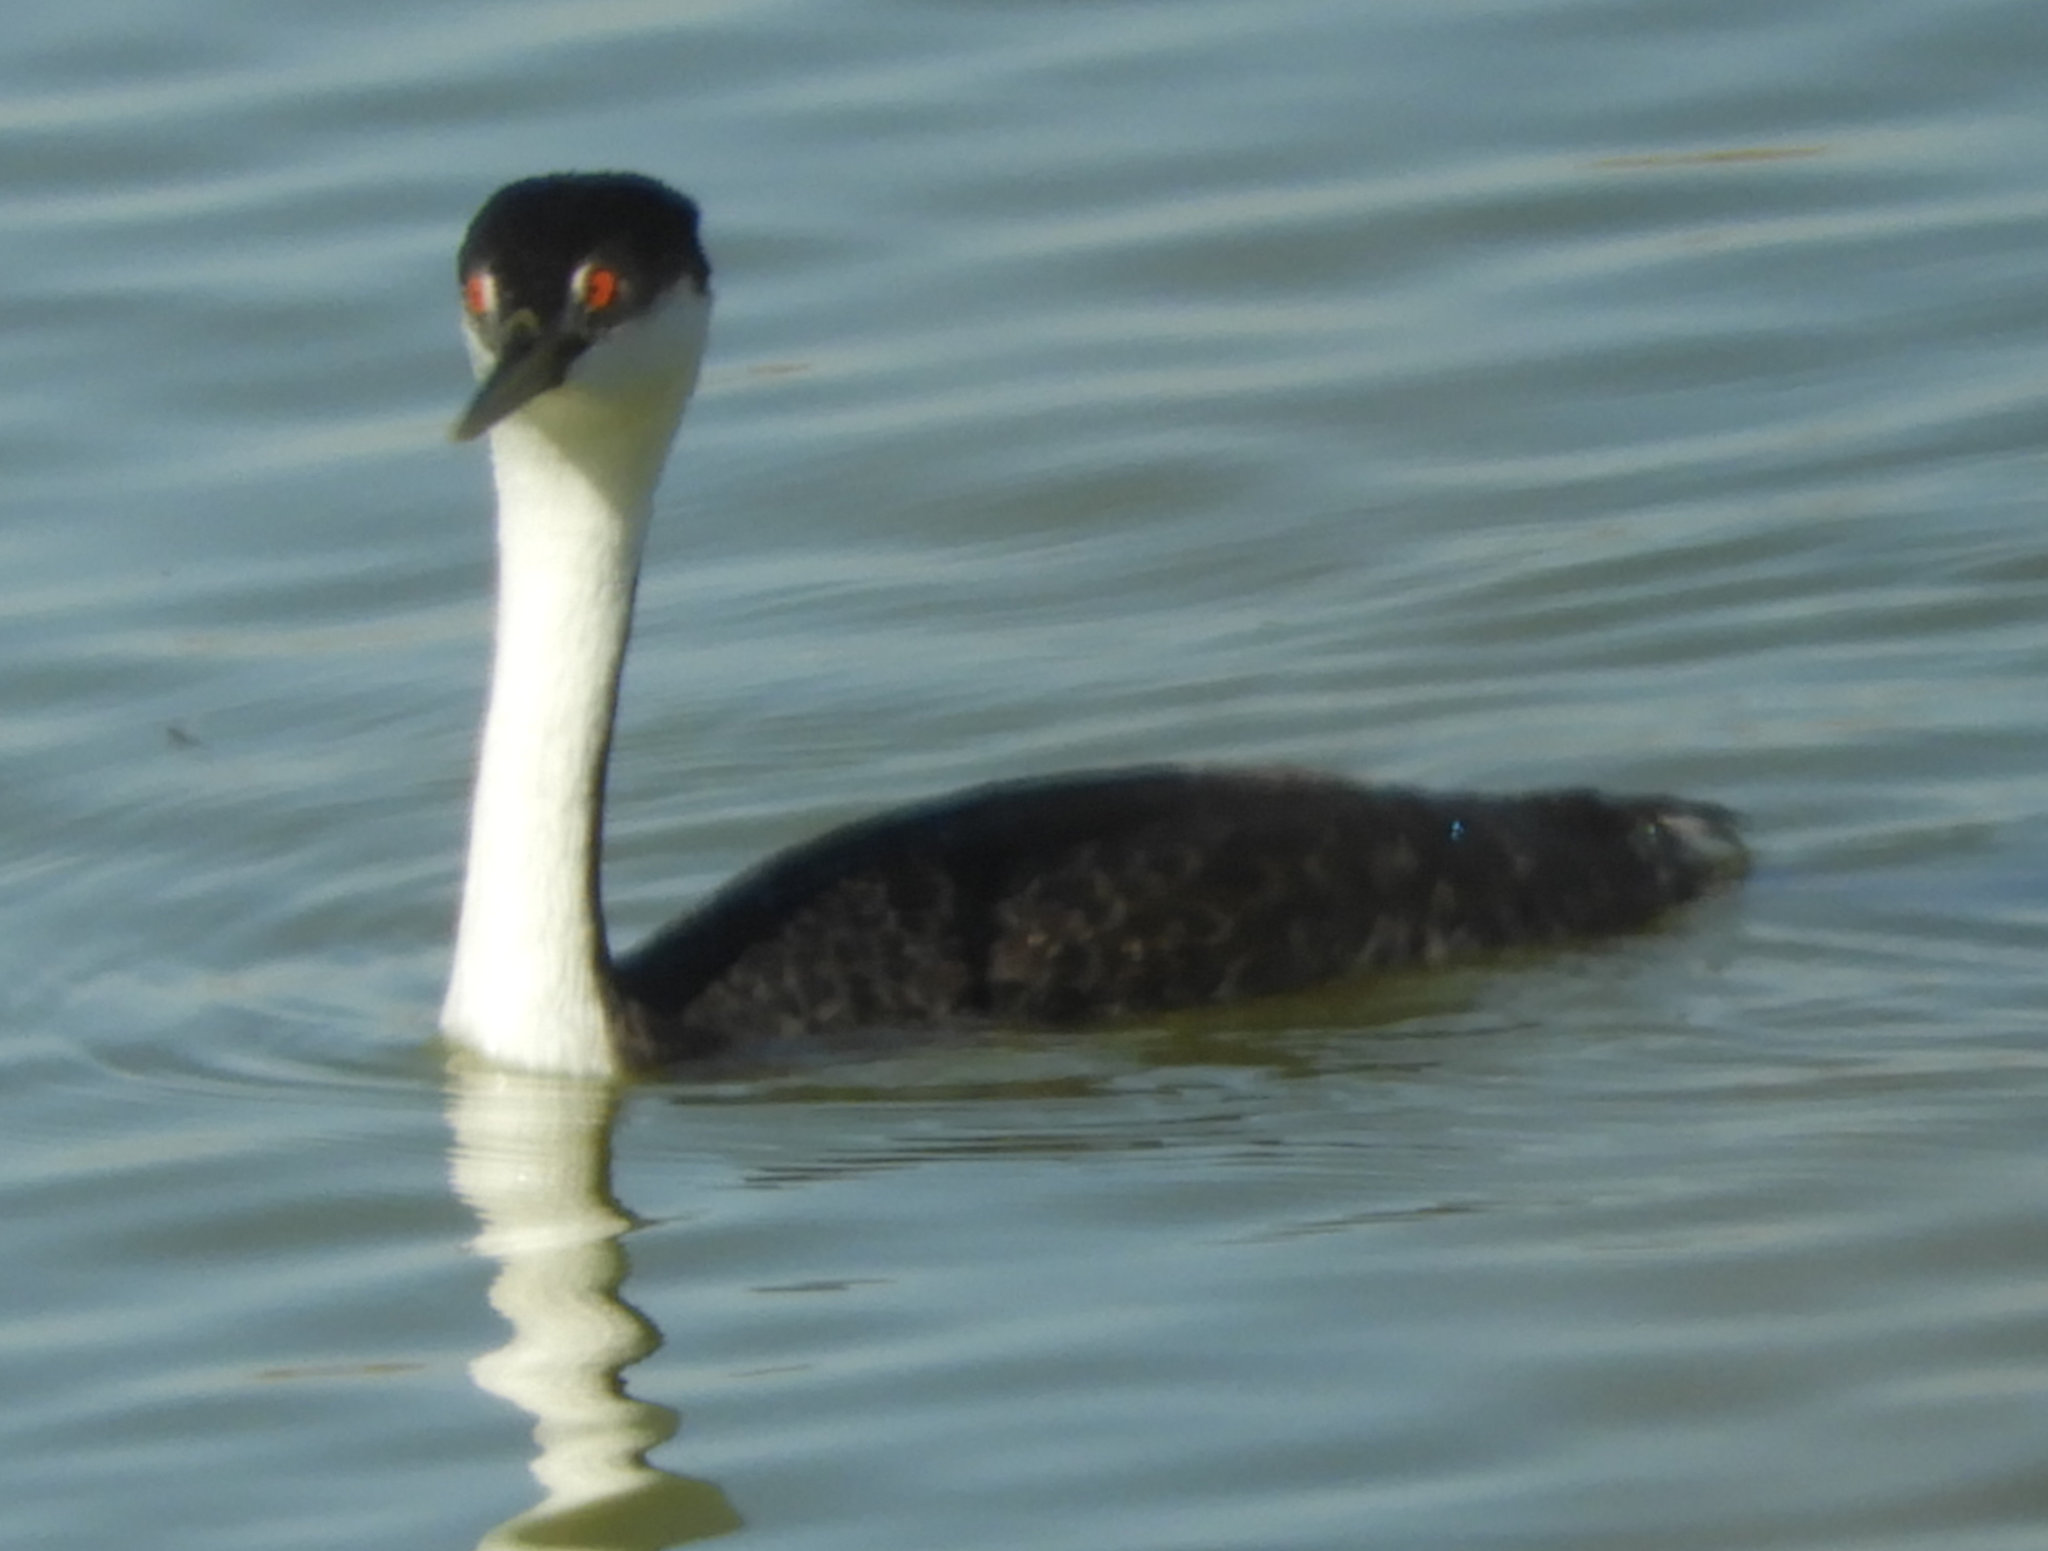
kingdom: Animalia
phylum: Chordata
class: Aves
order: Podicipediformes
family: Podicipedidae
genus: Aechmophorus
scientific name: Aechmophorus occidentalis
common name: Western grebe
